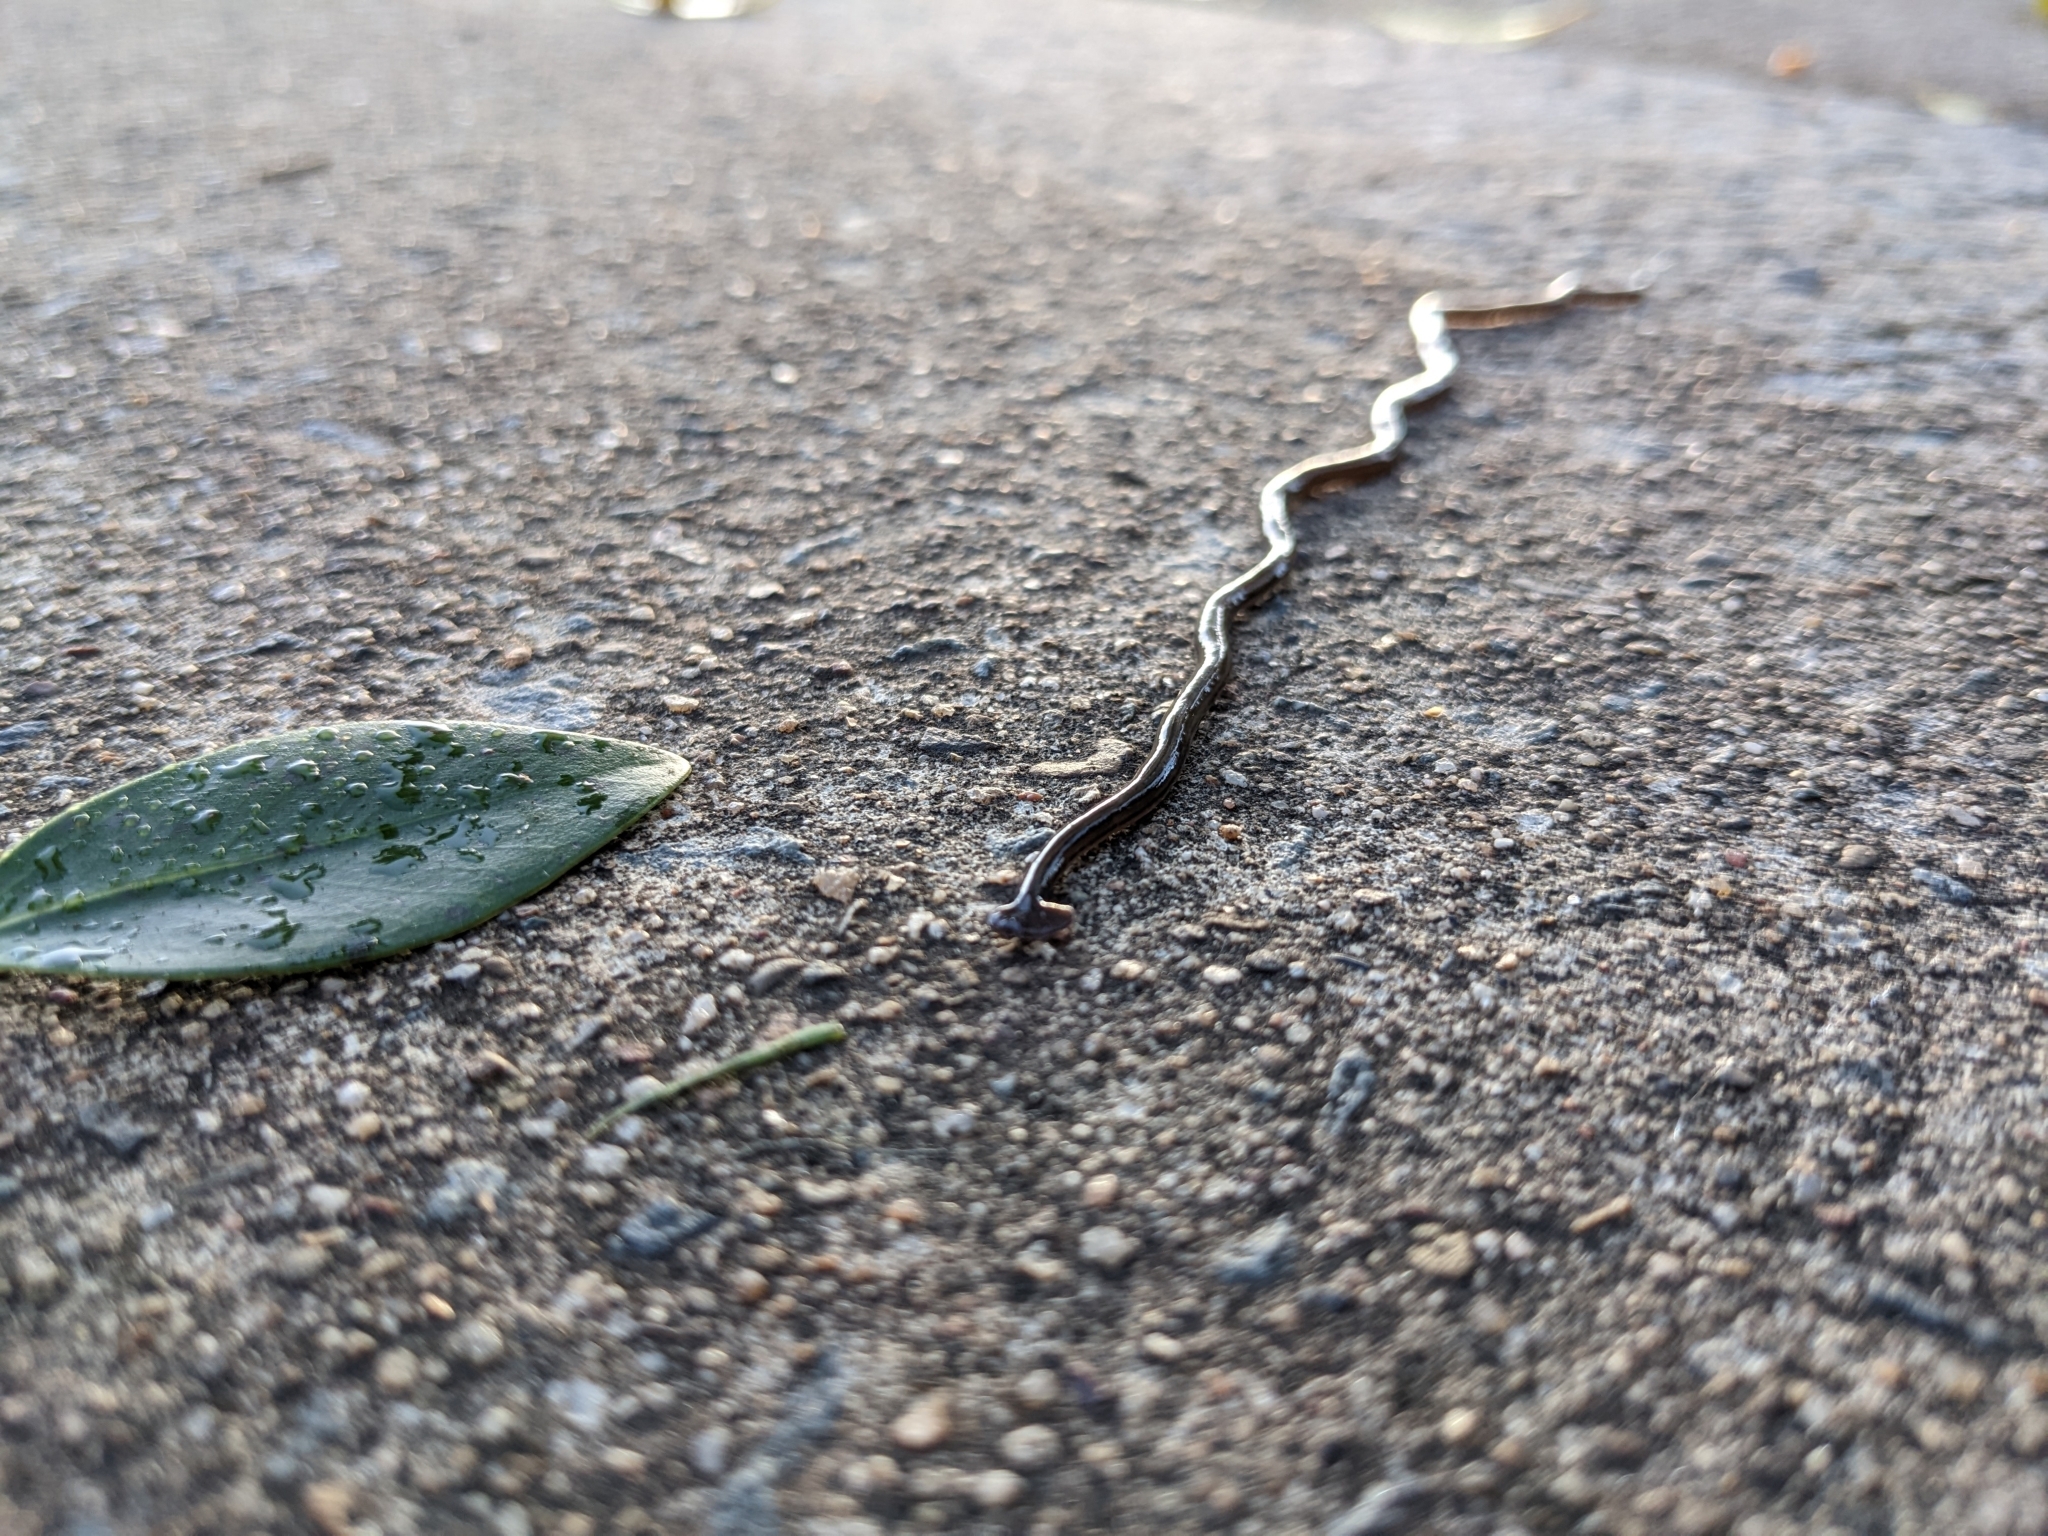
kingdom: Animalia
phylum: Platyhelminthes
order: Tricladida
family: Geoplanidae
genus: Bipalium
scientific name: Bipalium kewense
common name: Hammerhead flatworm
